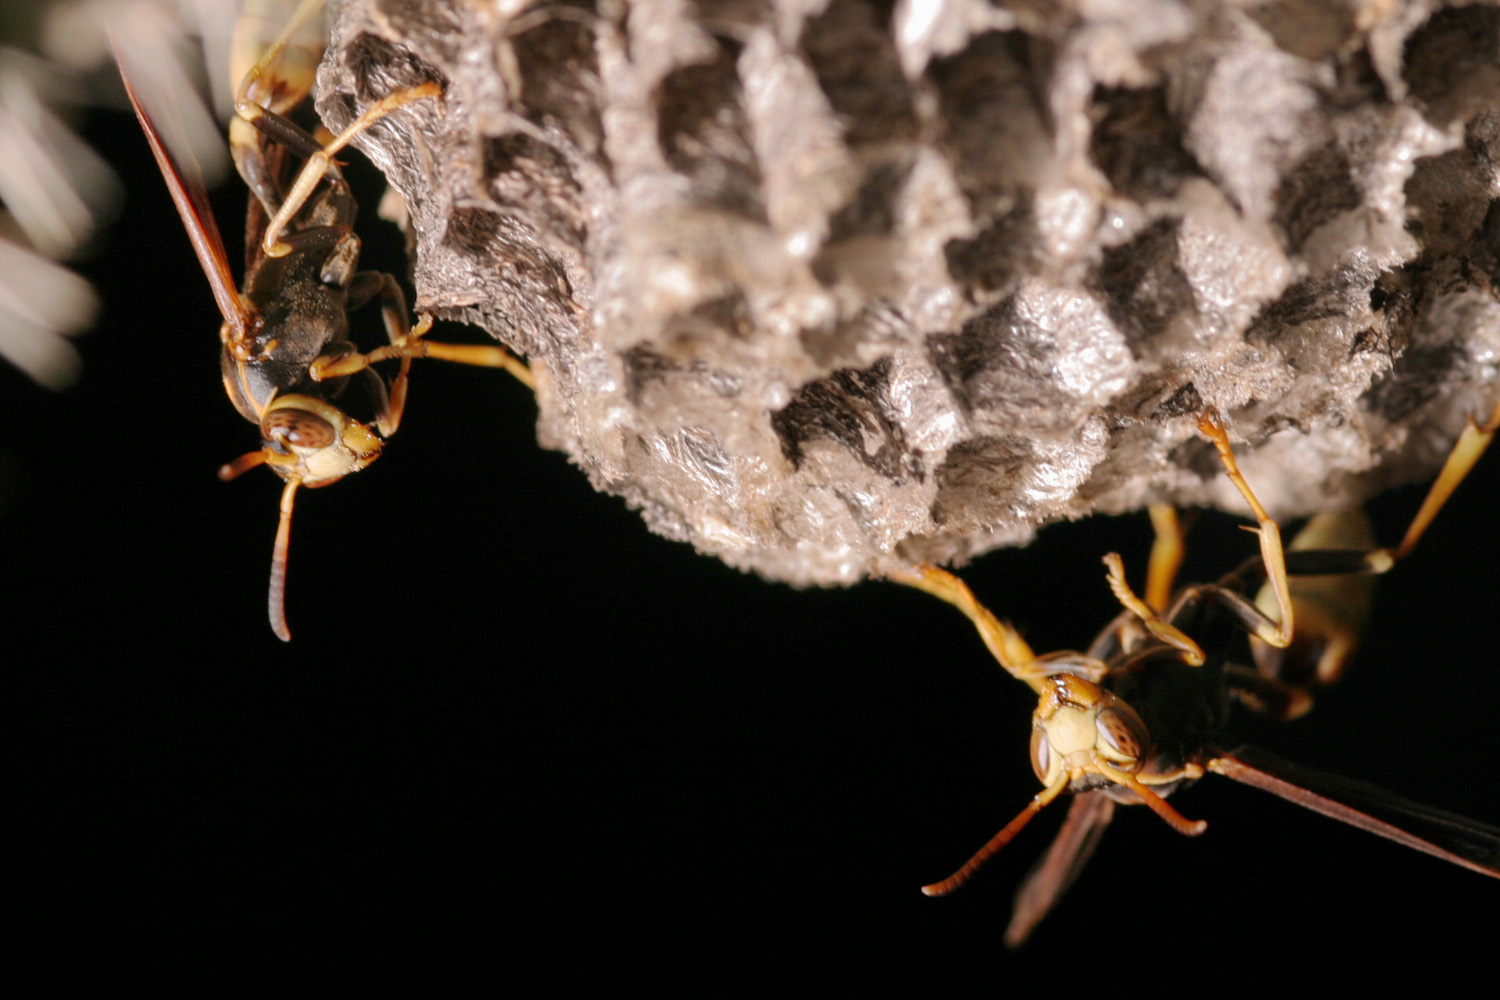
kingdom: Animalia
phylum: Arthropoda
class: Insecta
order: Hymenoptera
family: Vespidae
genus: Mischocyttarus
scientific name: Mischocyttarus navajo
